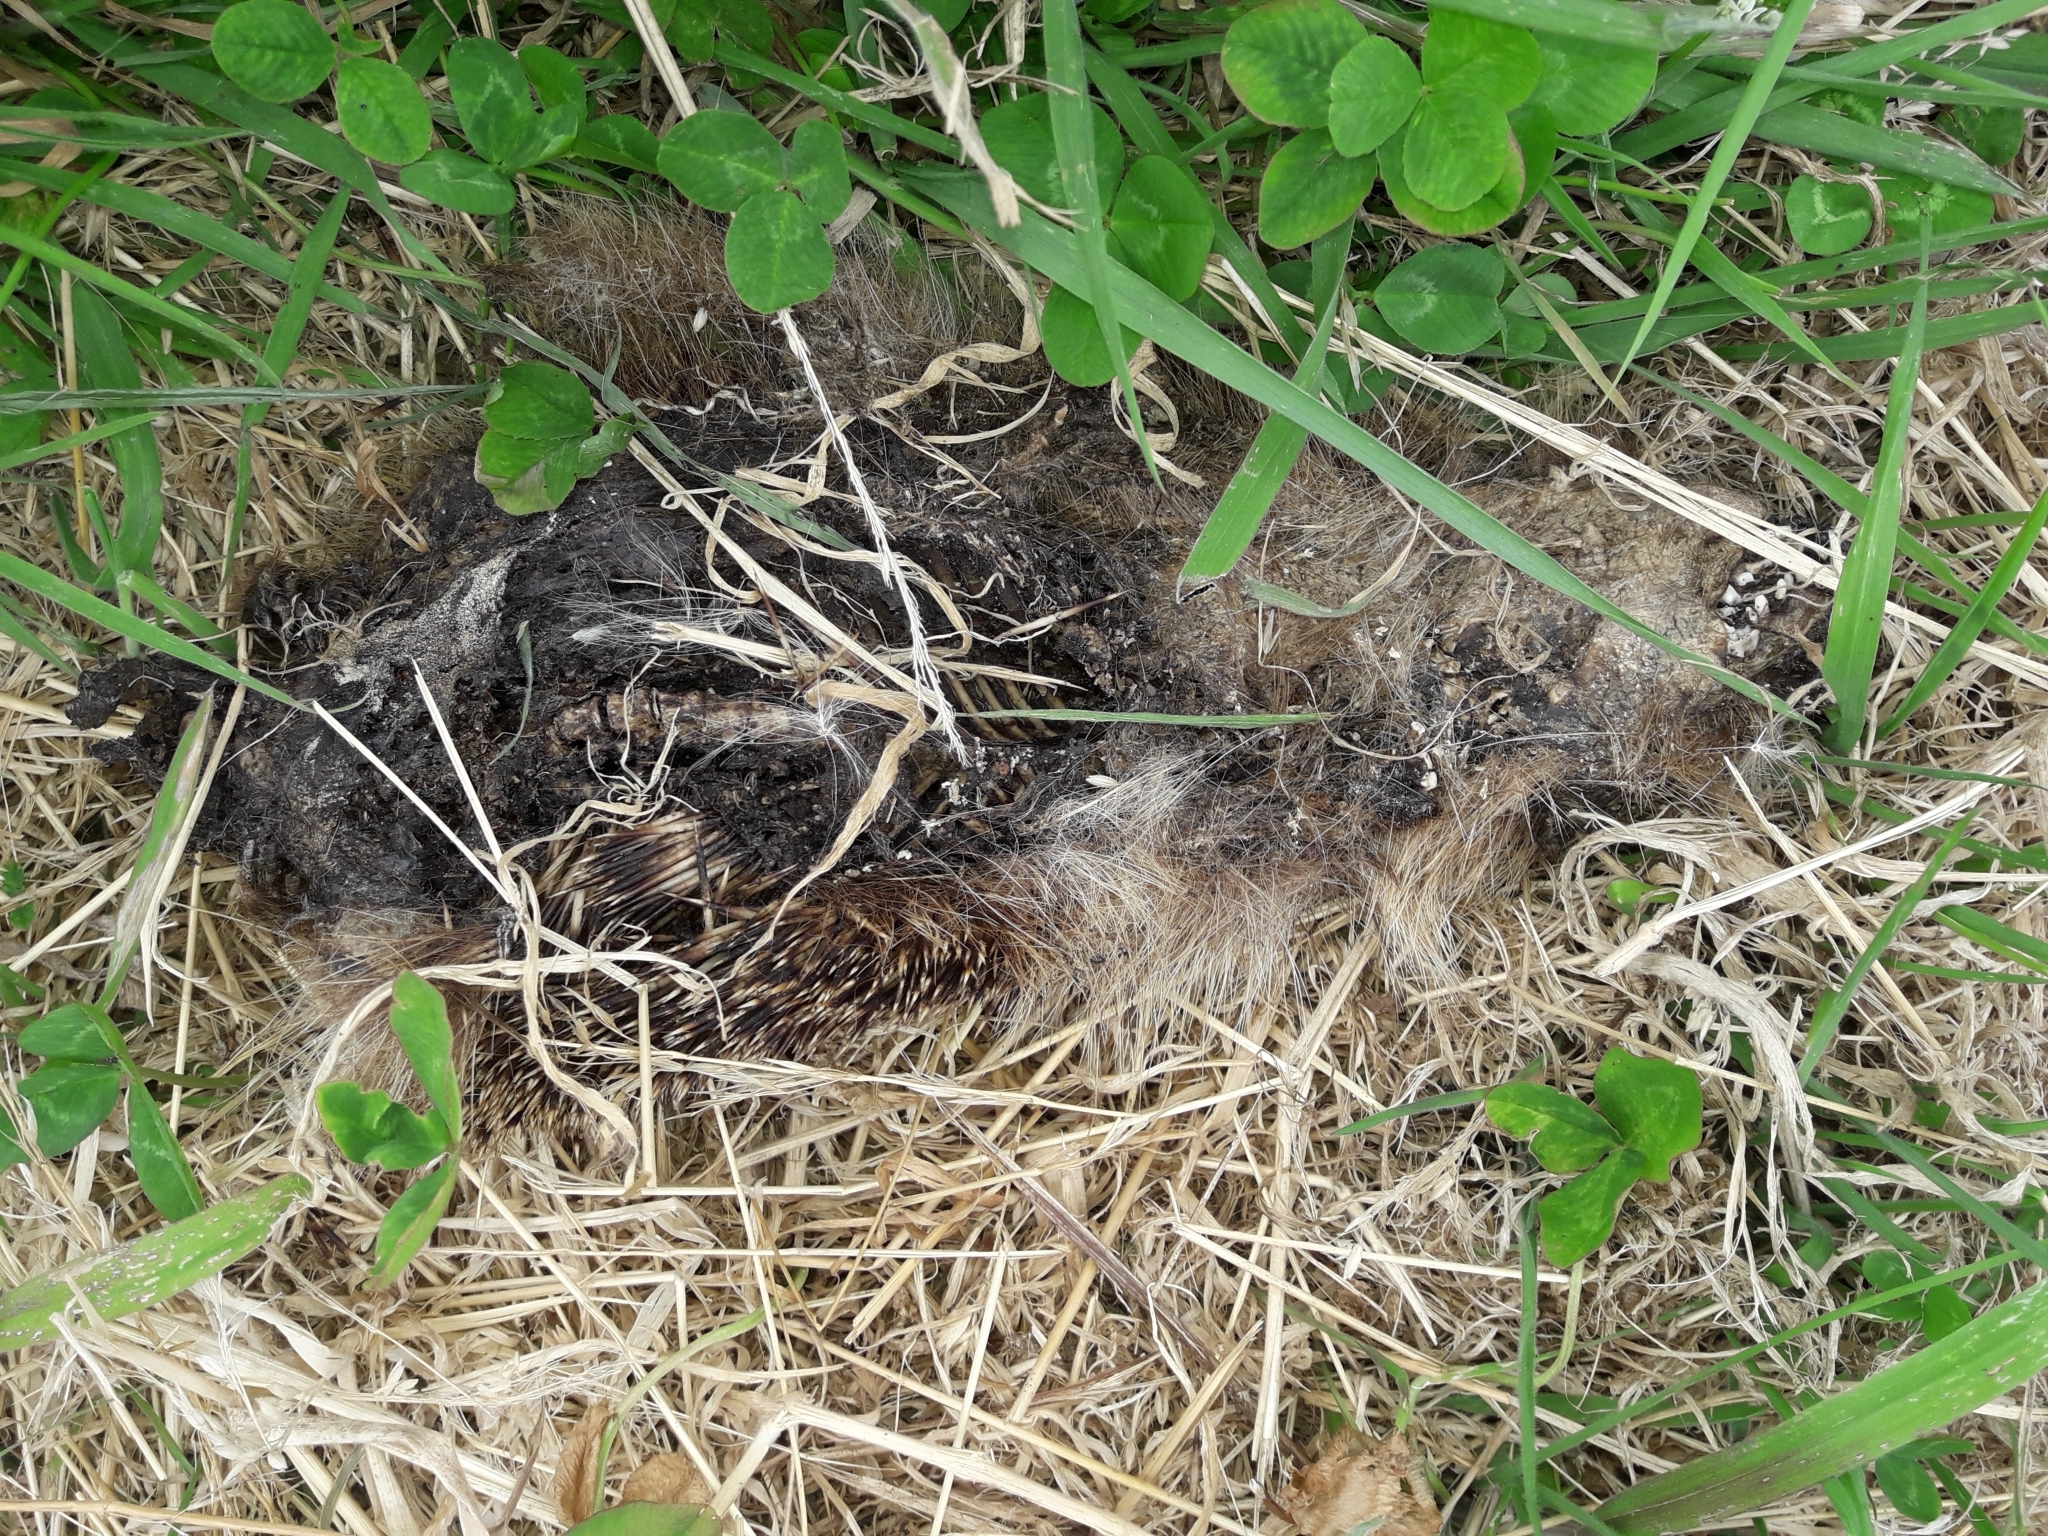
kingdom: Animalia
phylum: Chordata
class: Mammalia
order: Erinaceomorpha
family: Erinaceidae
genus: Erinaceus
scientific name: Erinaceus europaeus
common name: West european hedgehog
